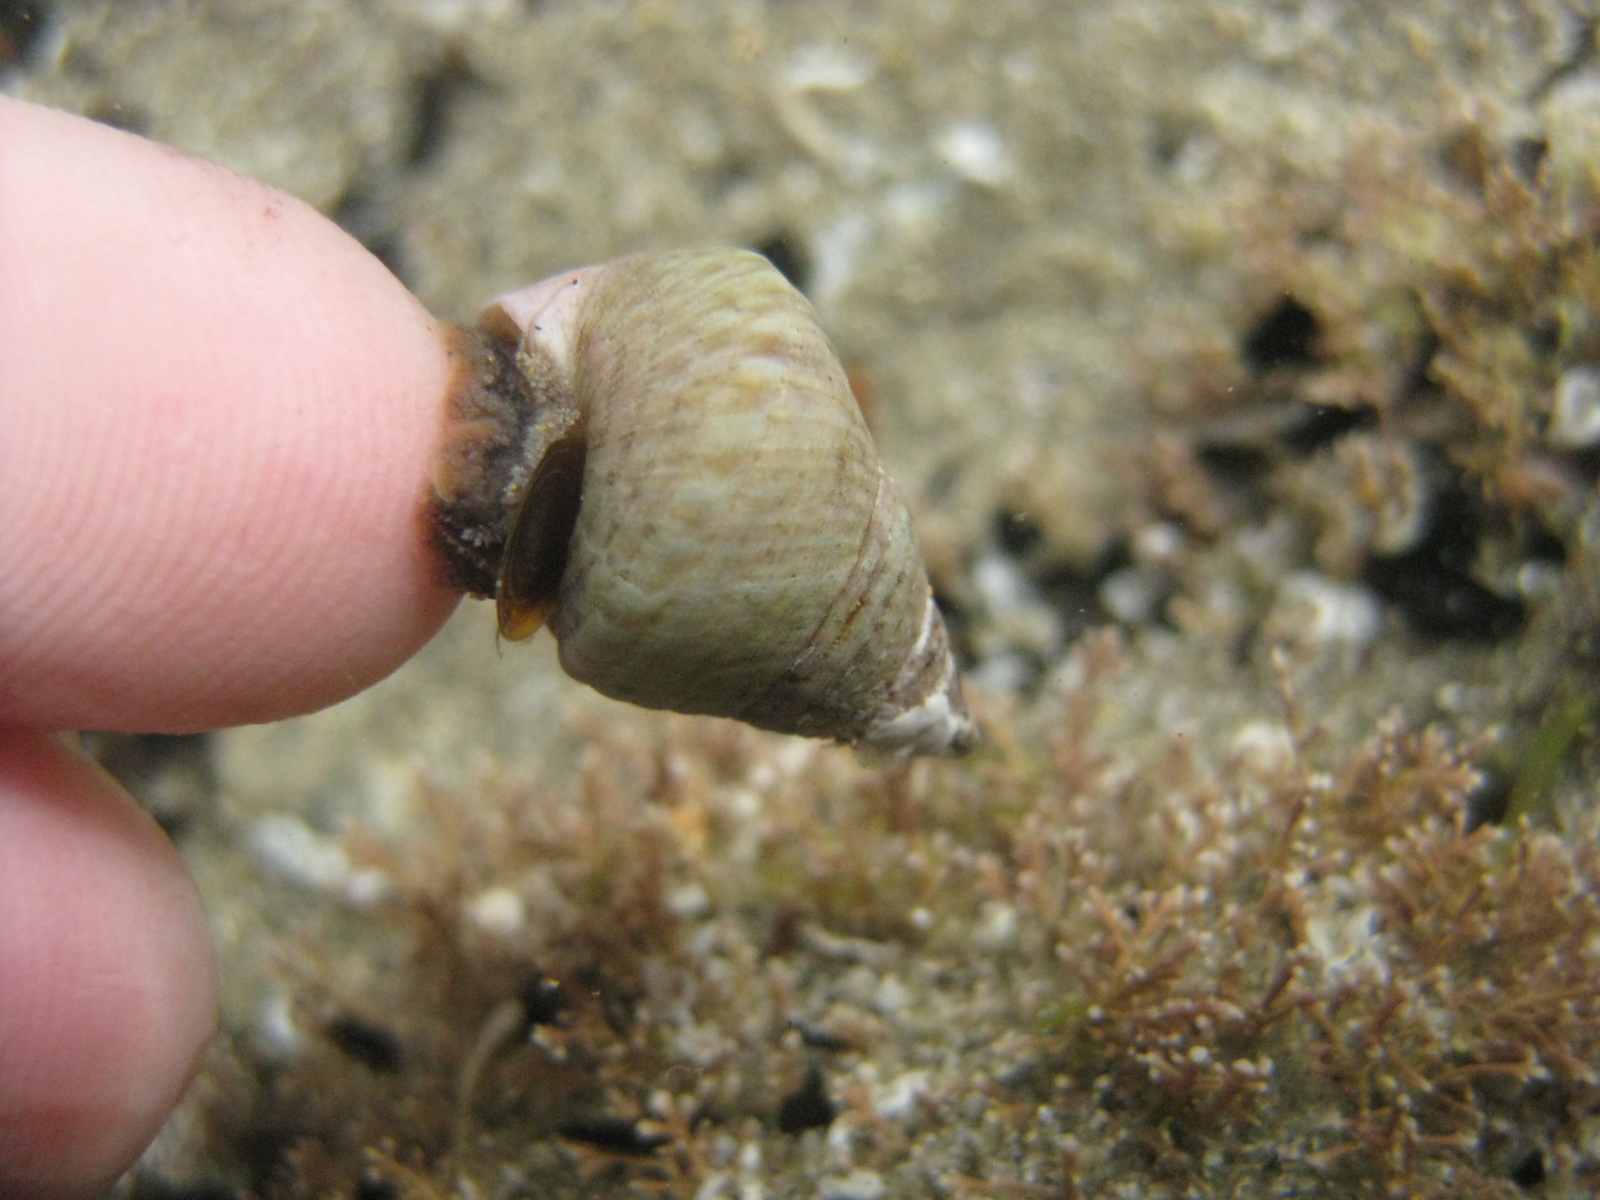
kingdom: Animalia
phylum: Mollusca
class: Gastropoda
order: Trochida
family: Trochidae
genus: Micrelenchus
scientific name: Micrelenchus purpureus
